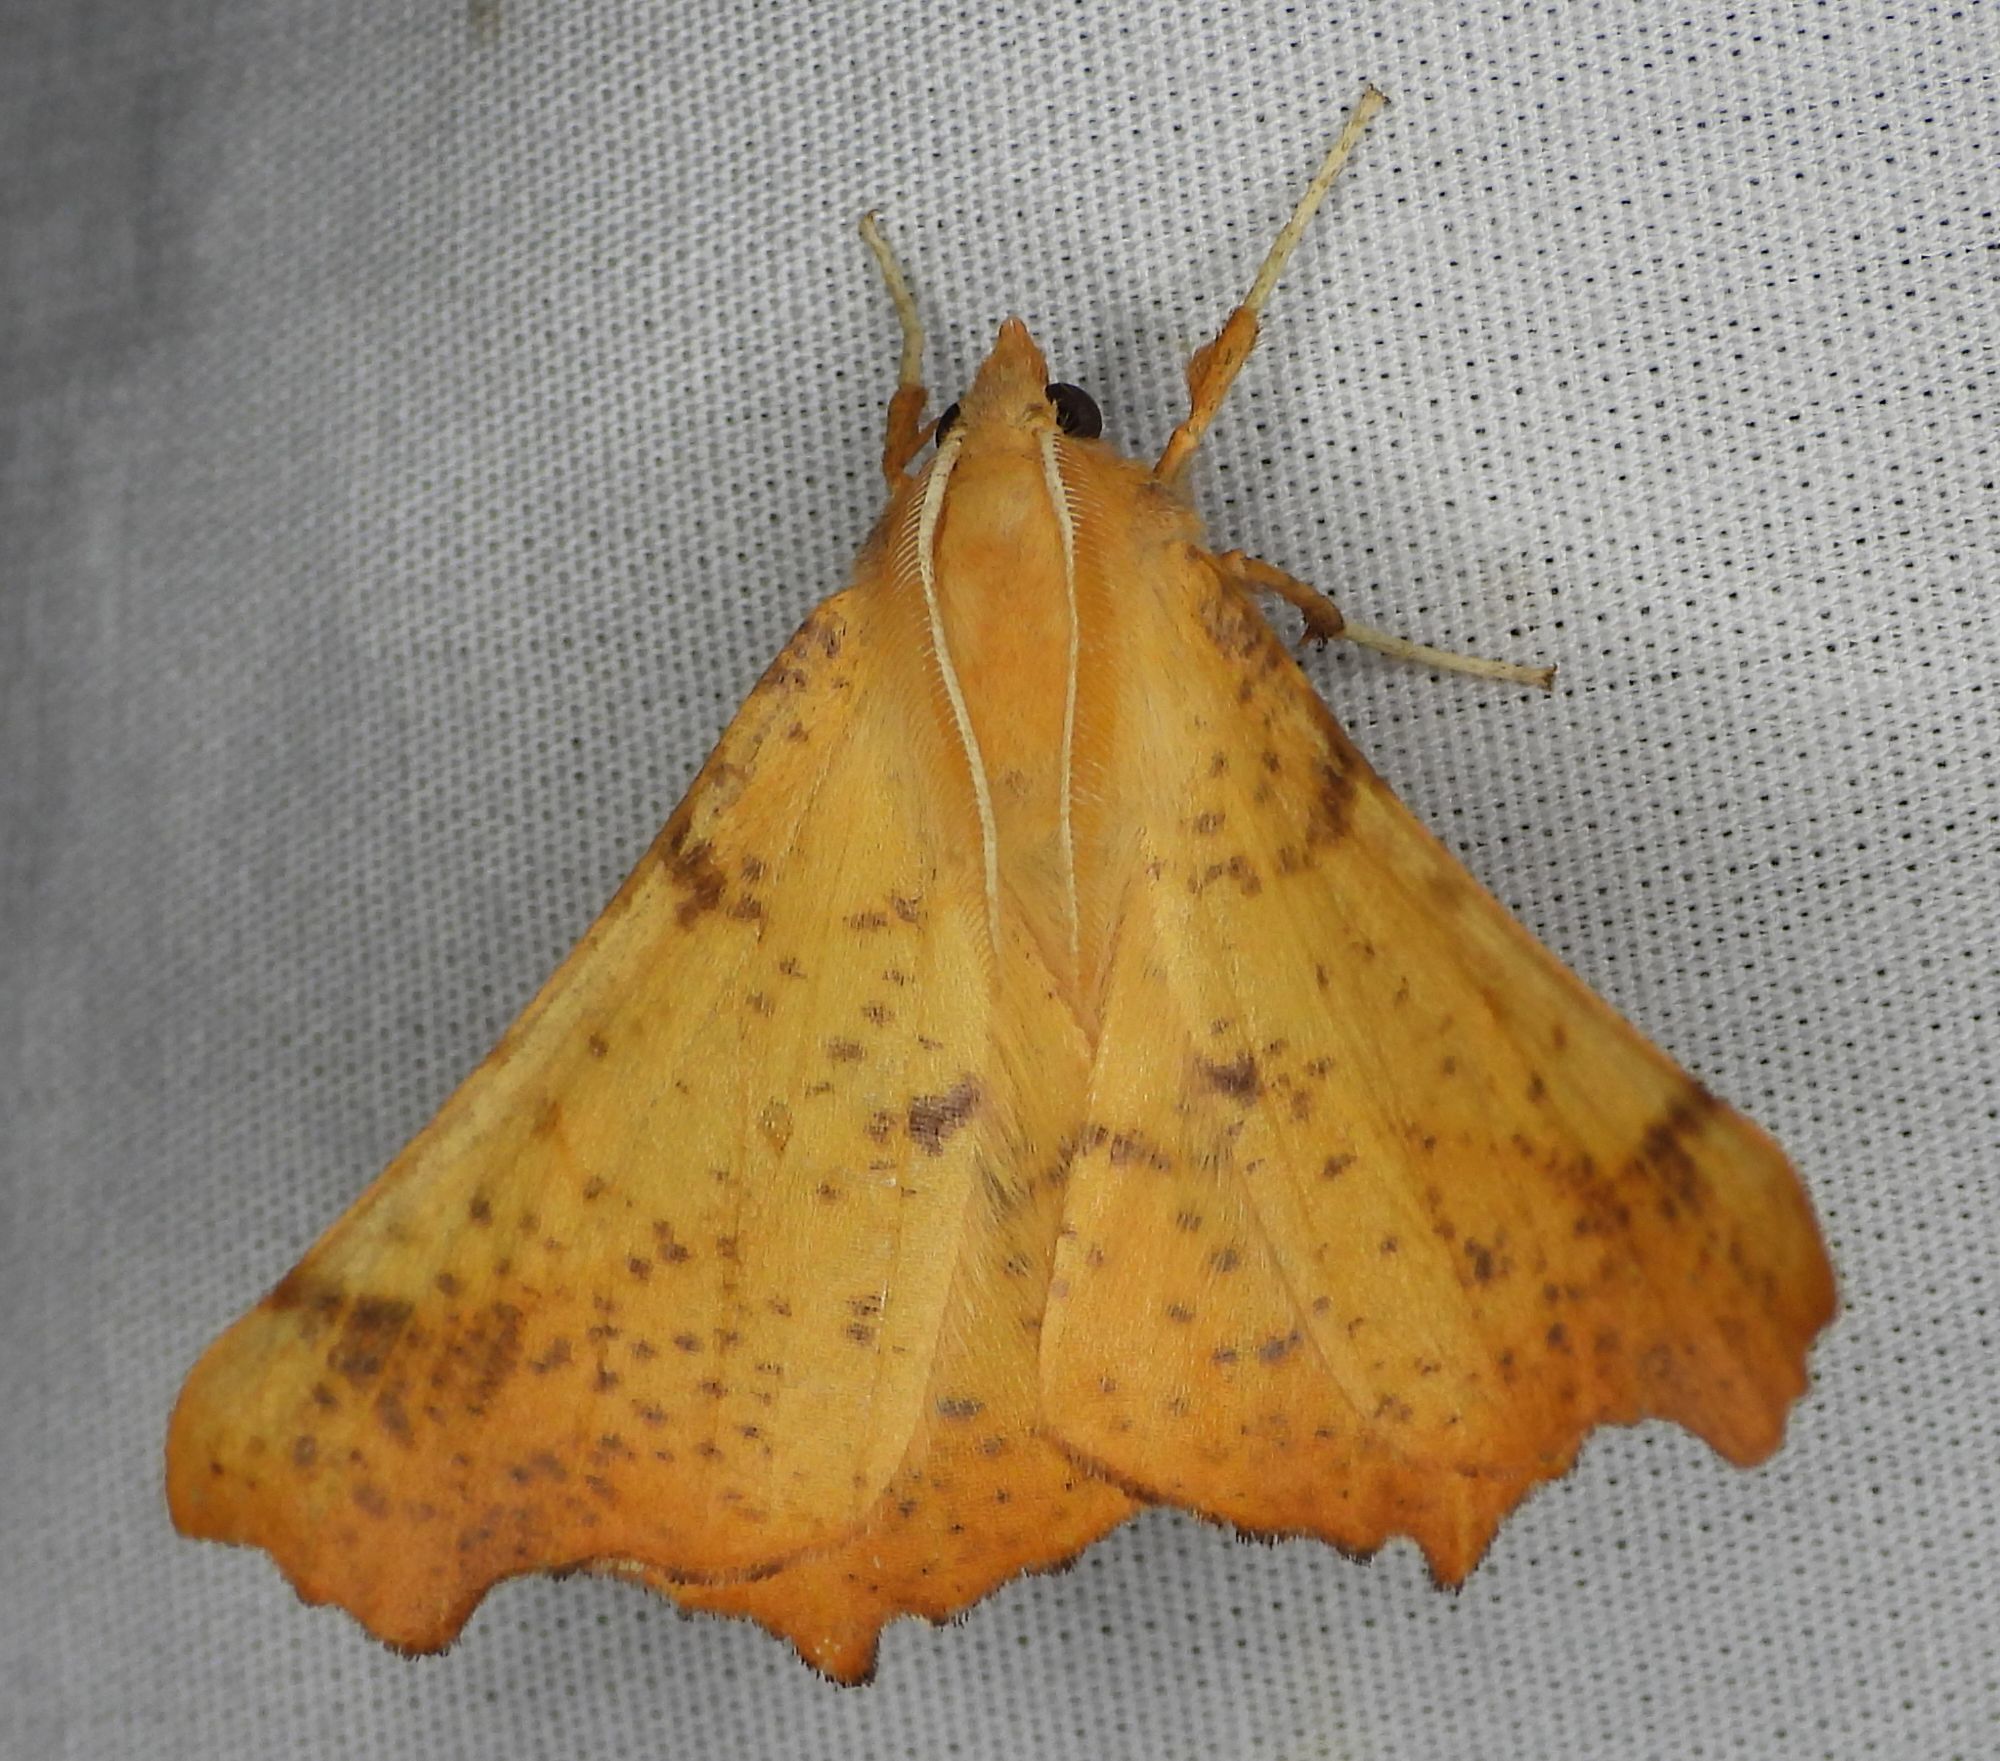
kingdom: Animalia
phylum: Arthropoda
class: Insecta
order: Lepidoptera
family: Geometridae
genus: Ennomos
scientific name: Ennomos magnaria
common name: Maple spanworm
